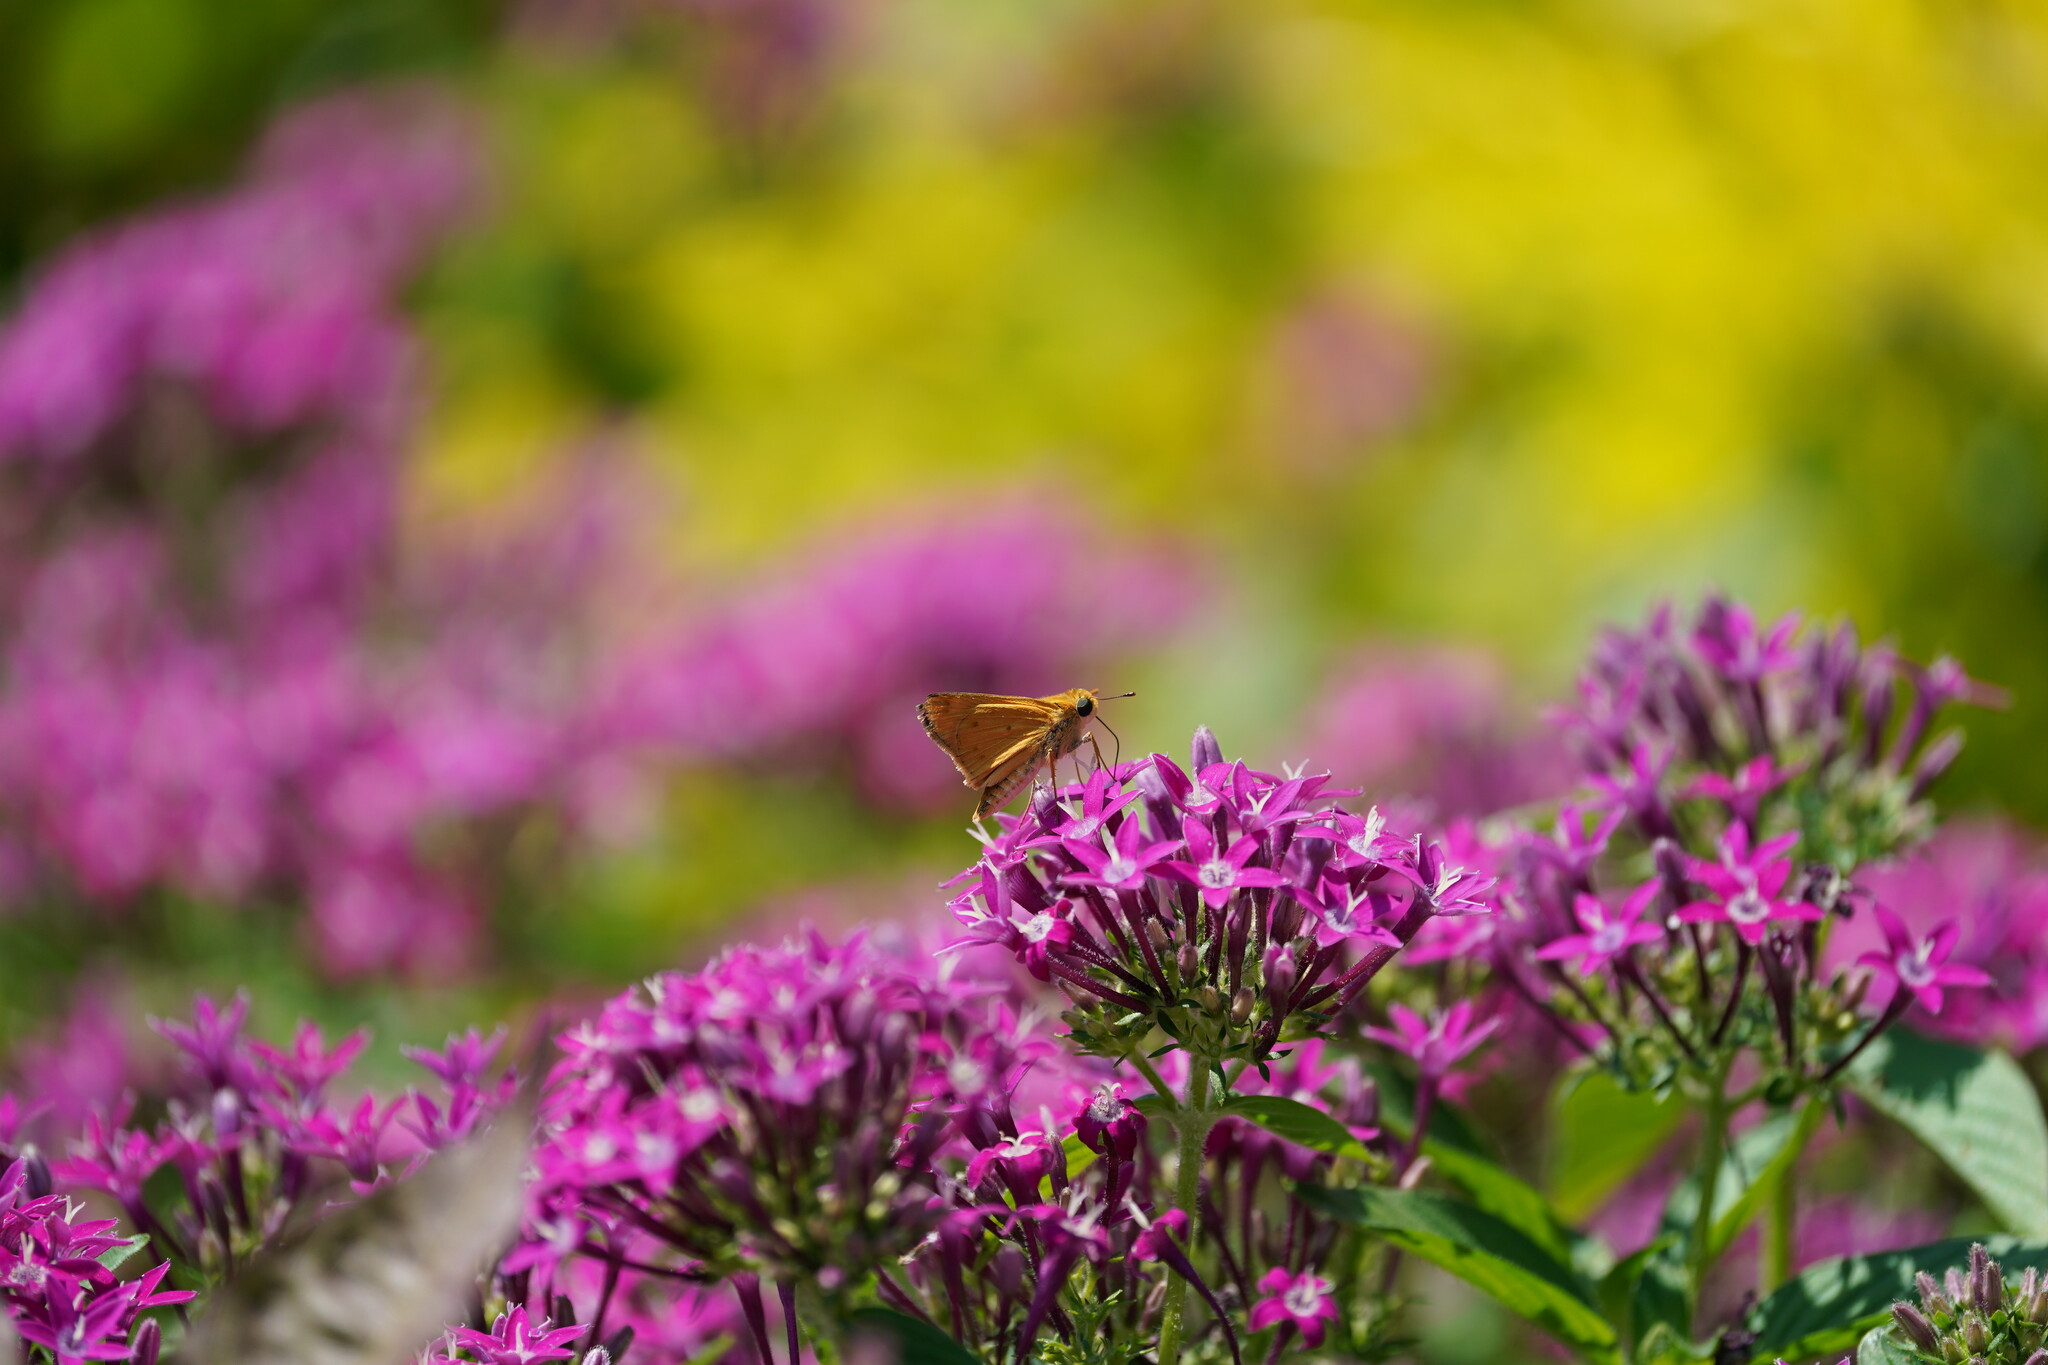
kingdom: Animalia
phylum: Arthropoda
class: Insecta
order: Lepidoptera
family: Hesperiidae
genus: Hylephila
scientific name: Hylephila phyleus
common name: Fiery skipper
